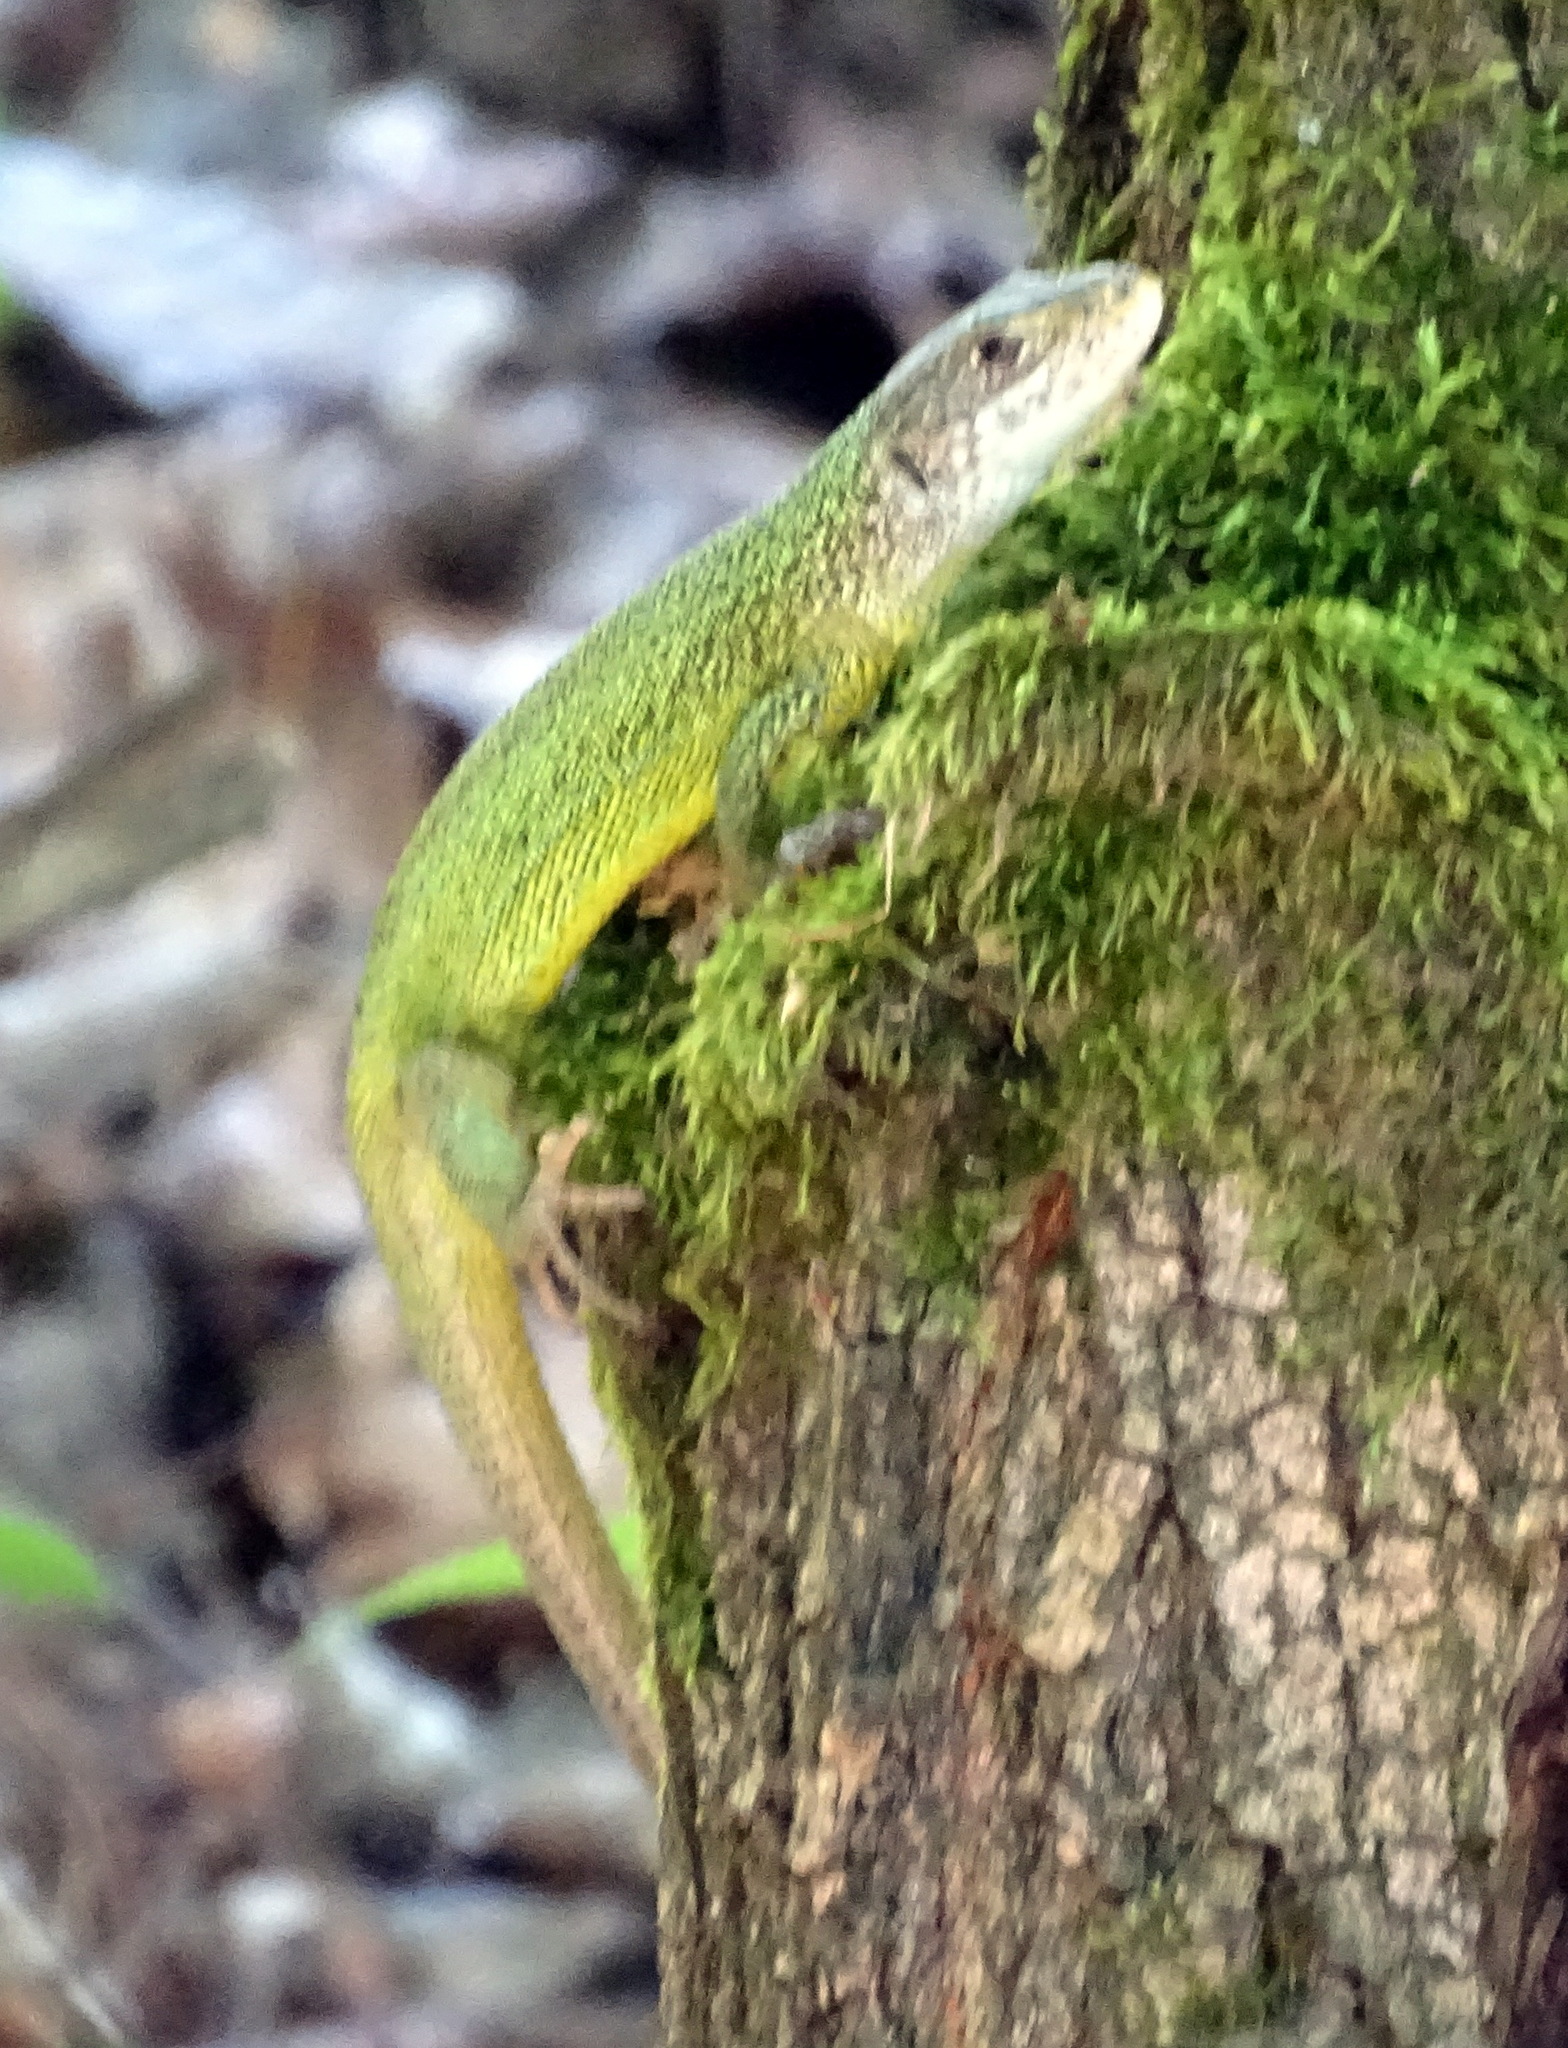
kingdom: Animalia
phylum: Chordata
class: Squamata
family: Lacertidae
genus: Lacerta
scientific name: Lacerta viridis
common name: European green lizard
